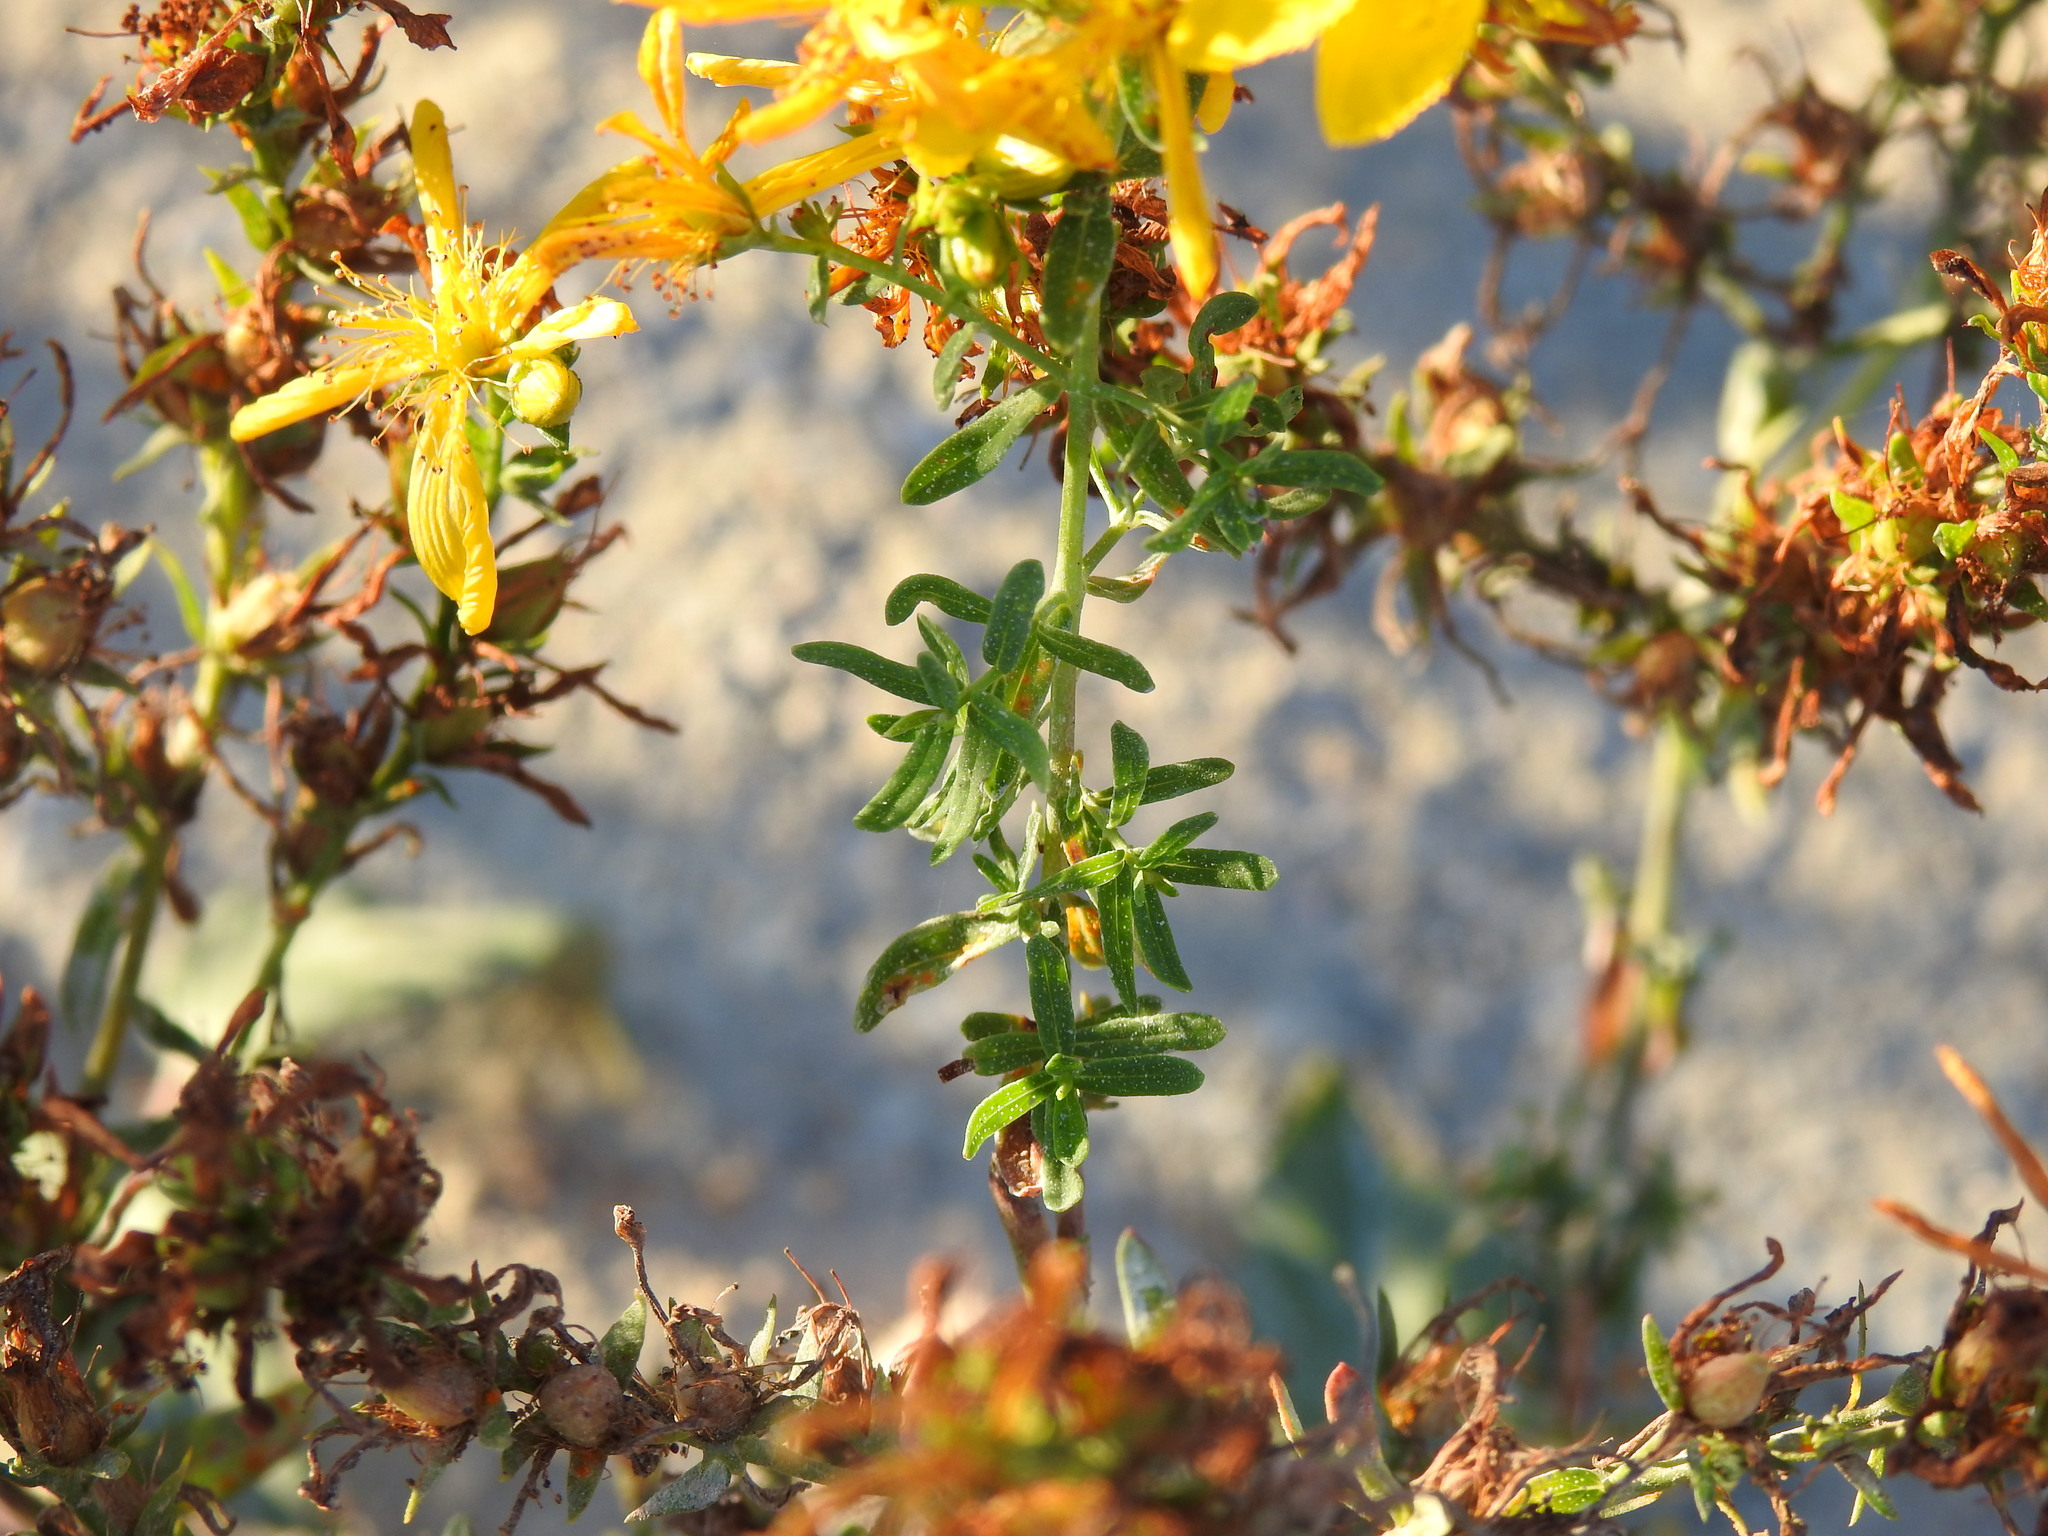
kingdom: Plantae
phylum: Tracheophyta
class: Magnoliopsida
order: Malpighiales
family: Hypericaceae
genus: Hypericum
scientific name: Hypericum perforatum
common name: Common st. johnswort
